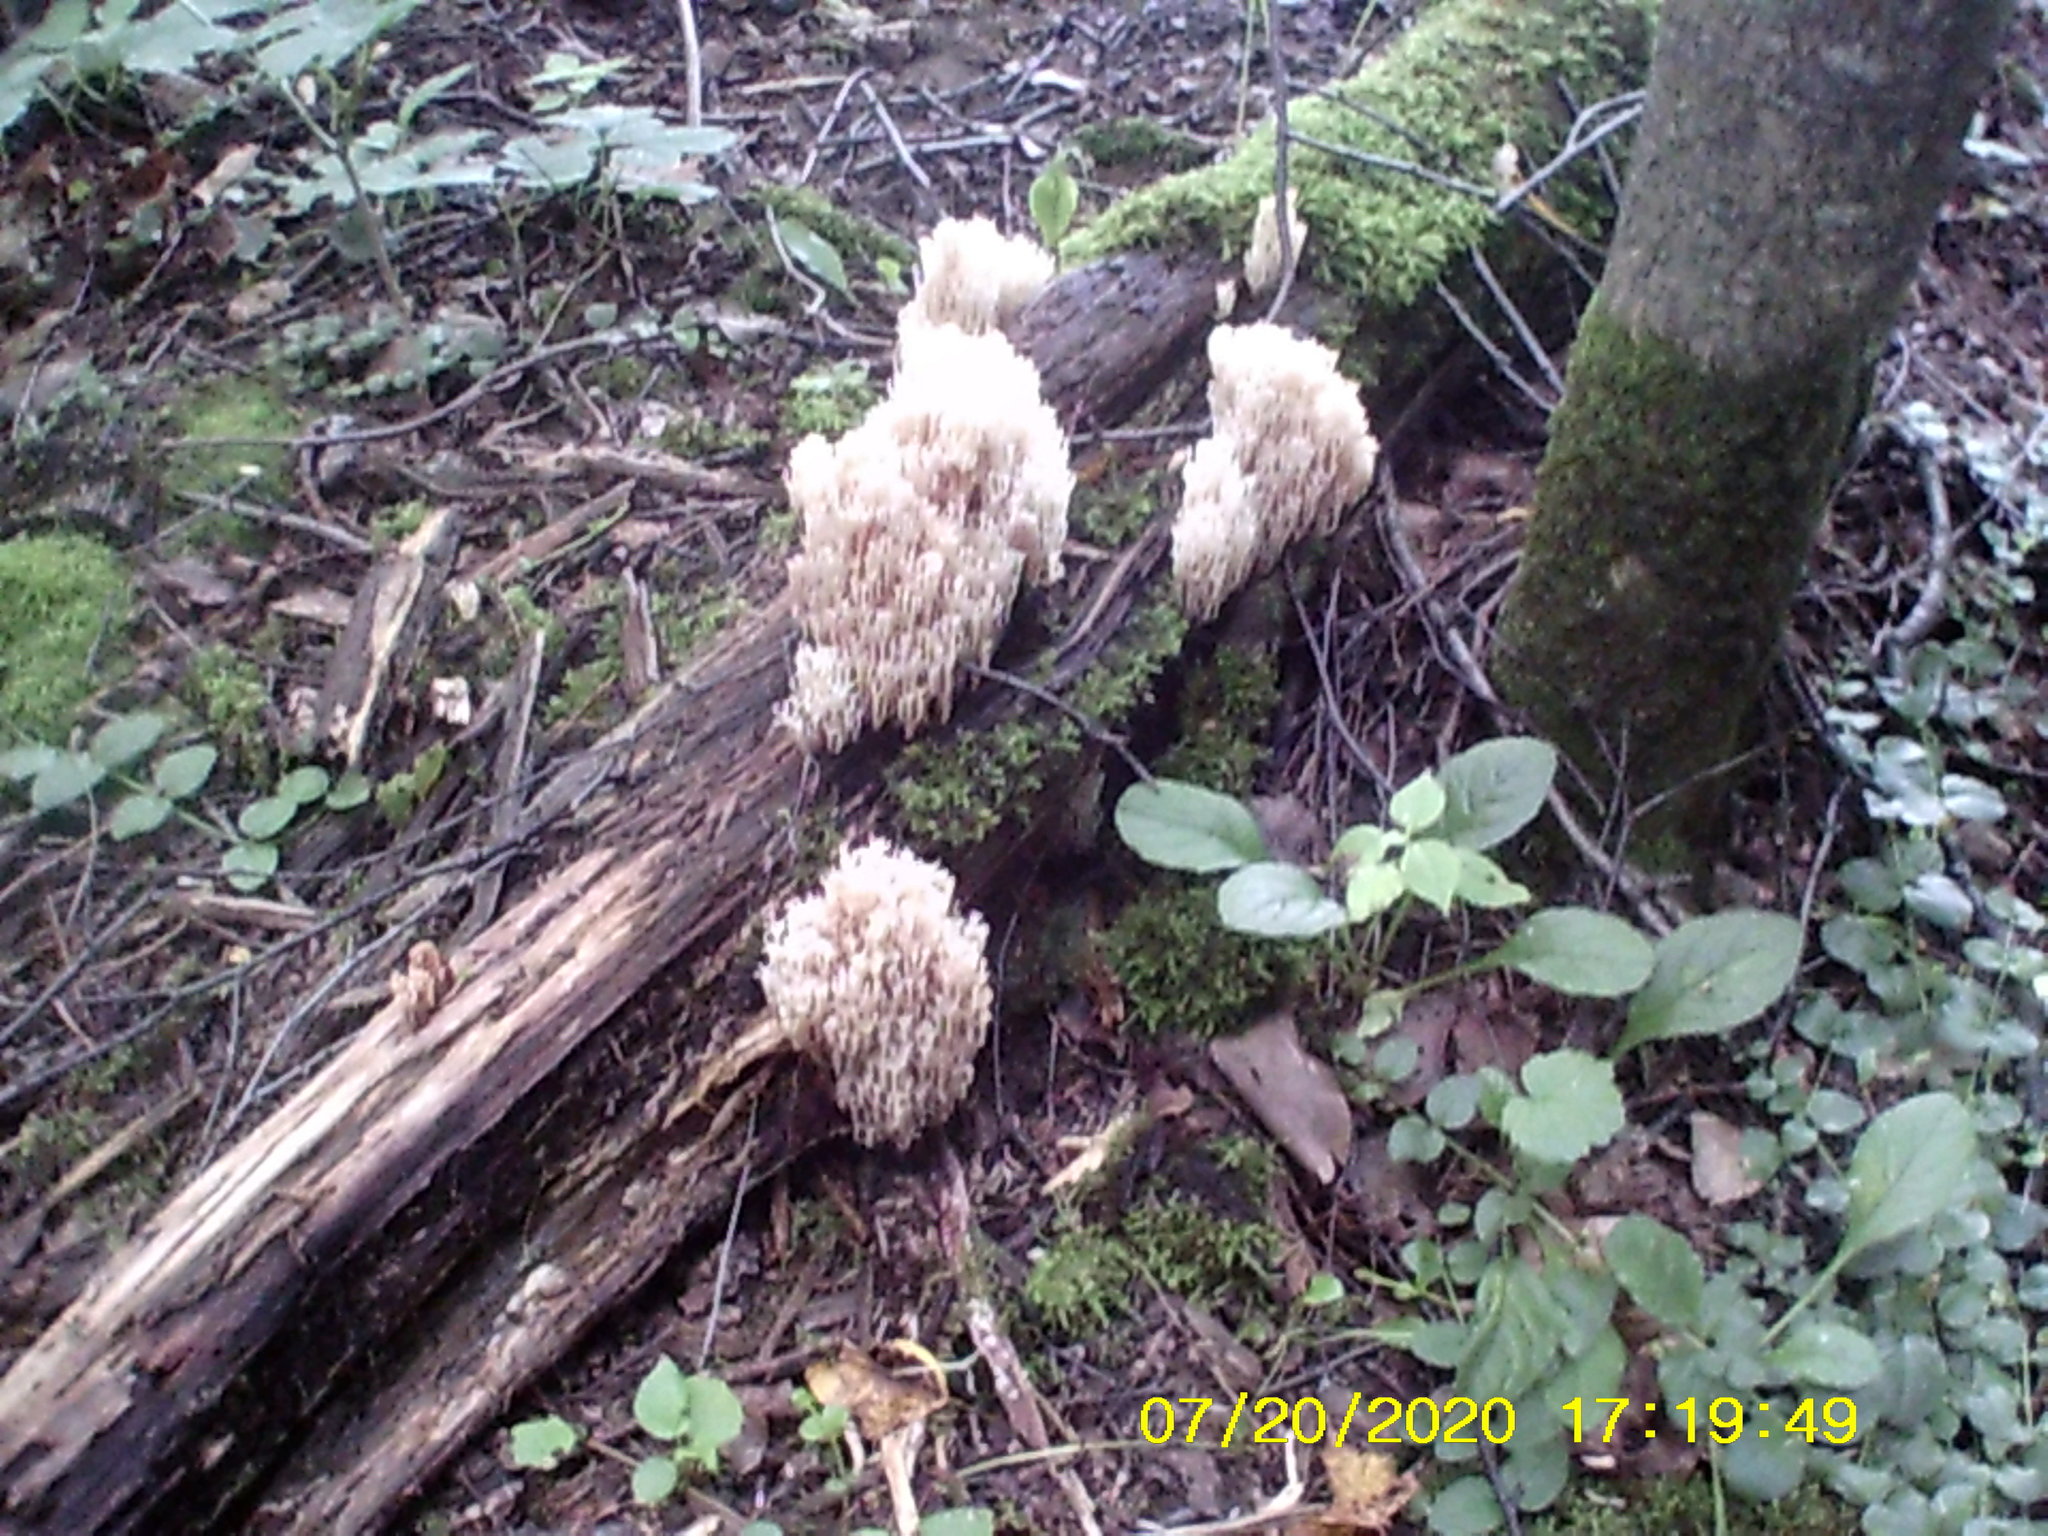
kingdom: Fungi
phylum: Basidiomycota
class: Agaricomycetes
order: Russulales
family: Auriscalpiaceae
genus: Artomyces
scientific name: Artomyces pyxidatus
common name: Crown-tipped coral fungus
